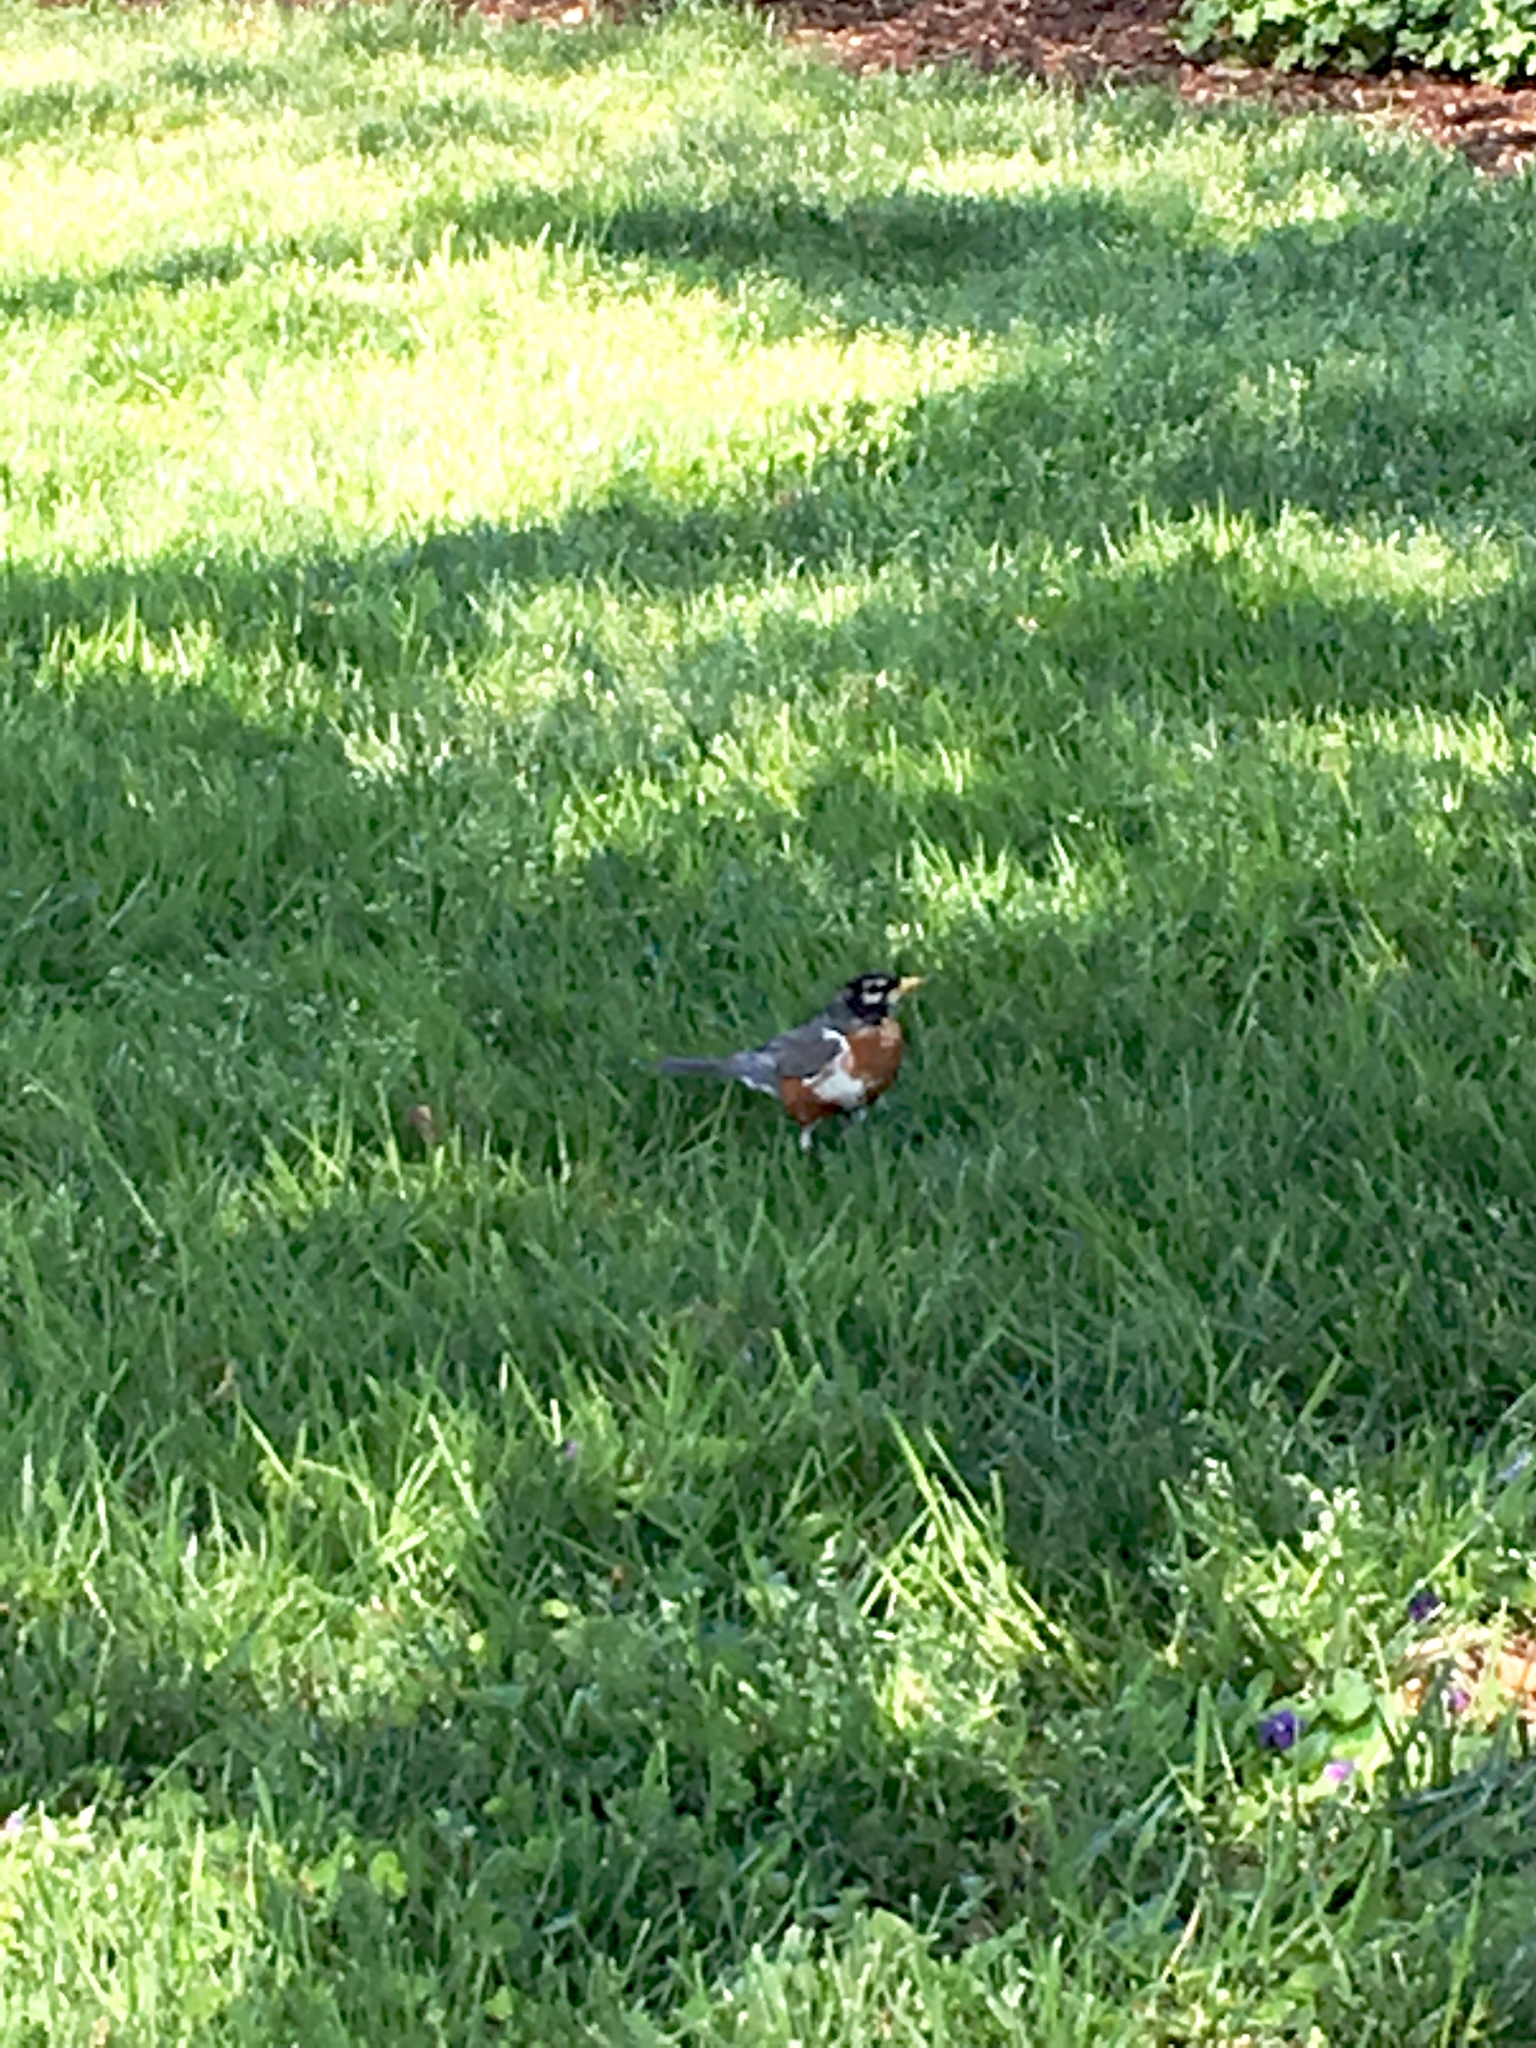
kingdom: Animalia
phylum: Chordata
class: Aves
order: Passeriformes
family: Turdidae
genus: Turdus
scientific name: Turdus migratorius
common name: American robin
